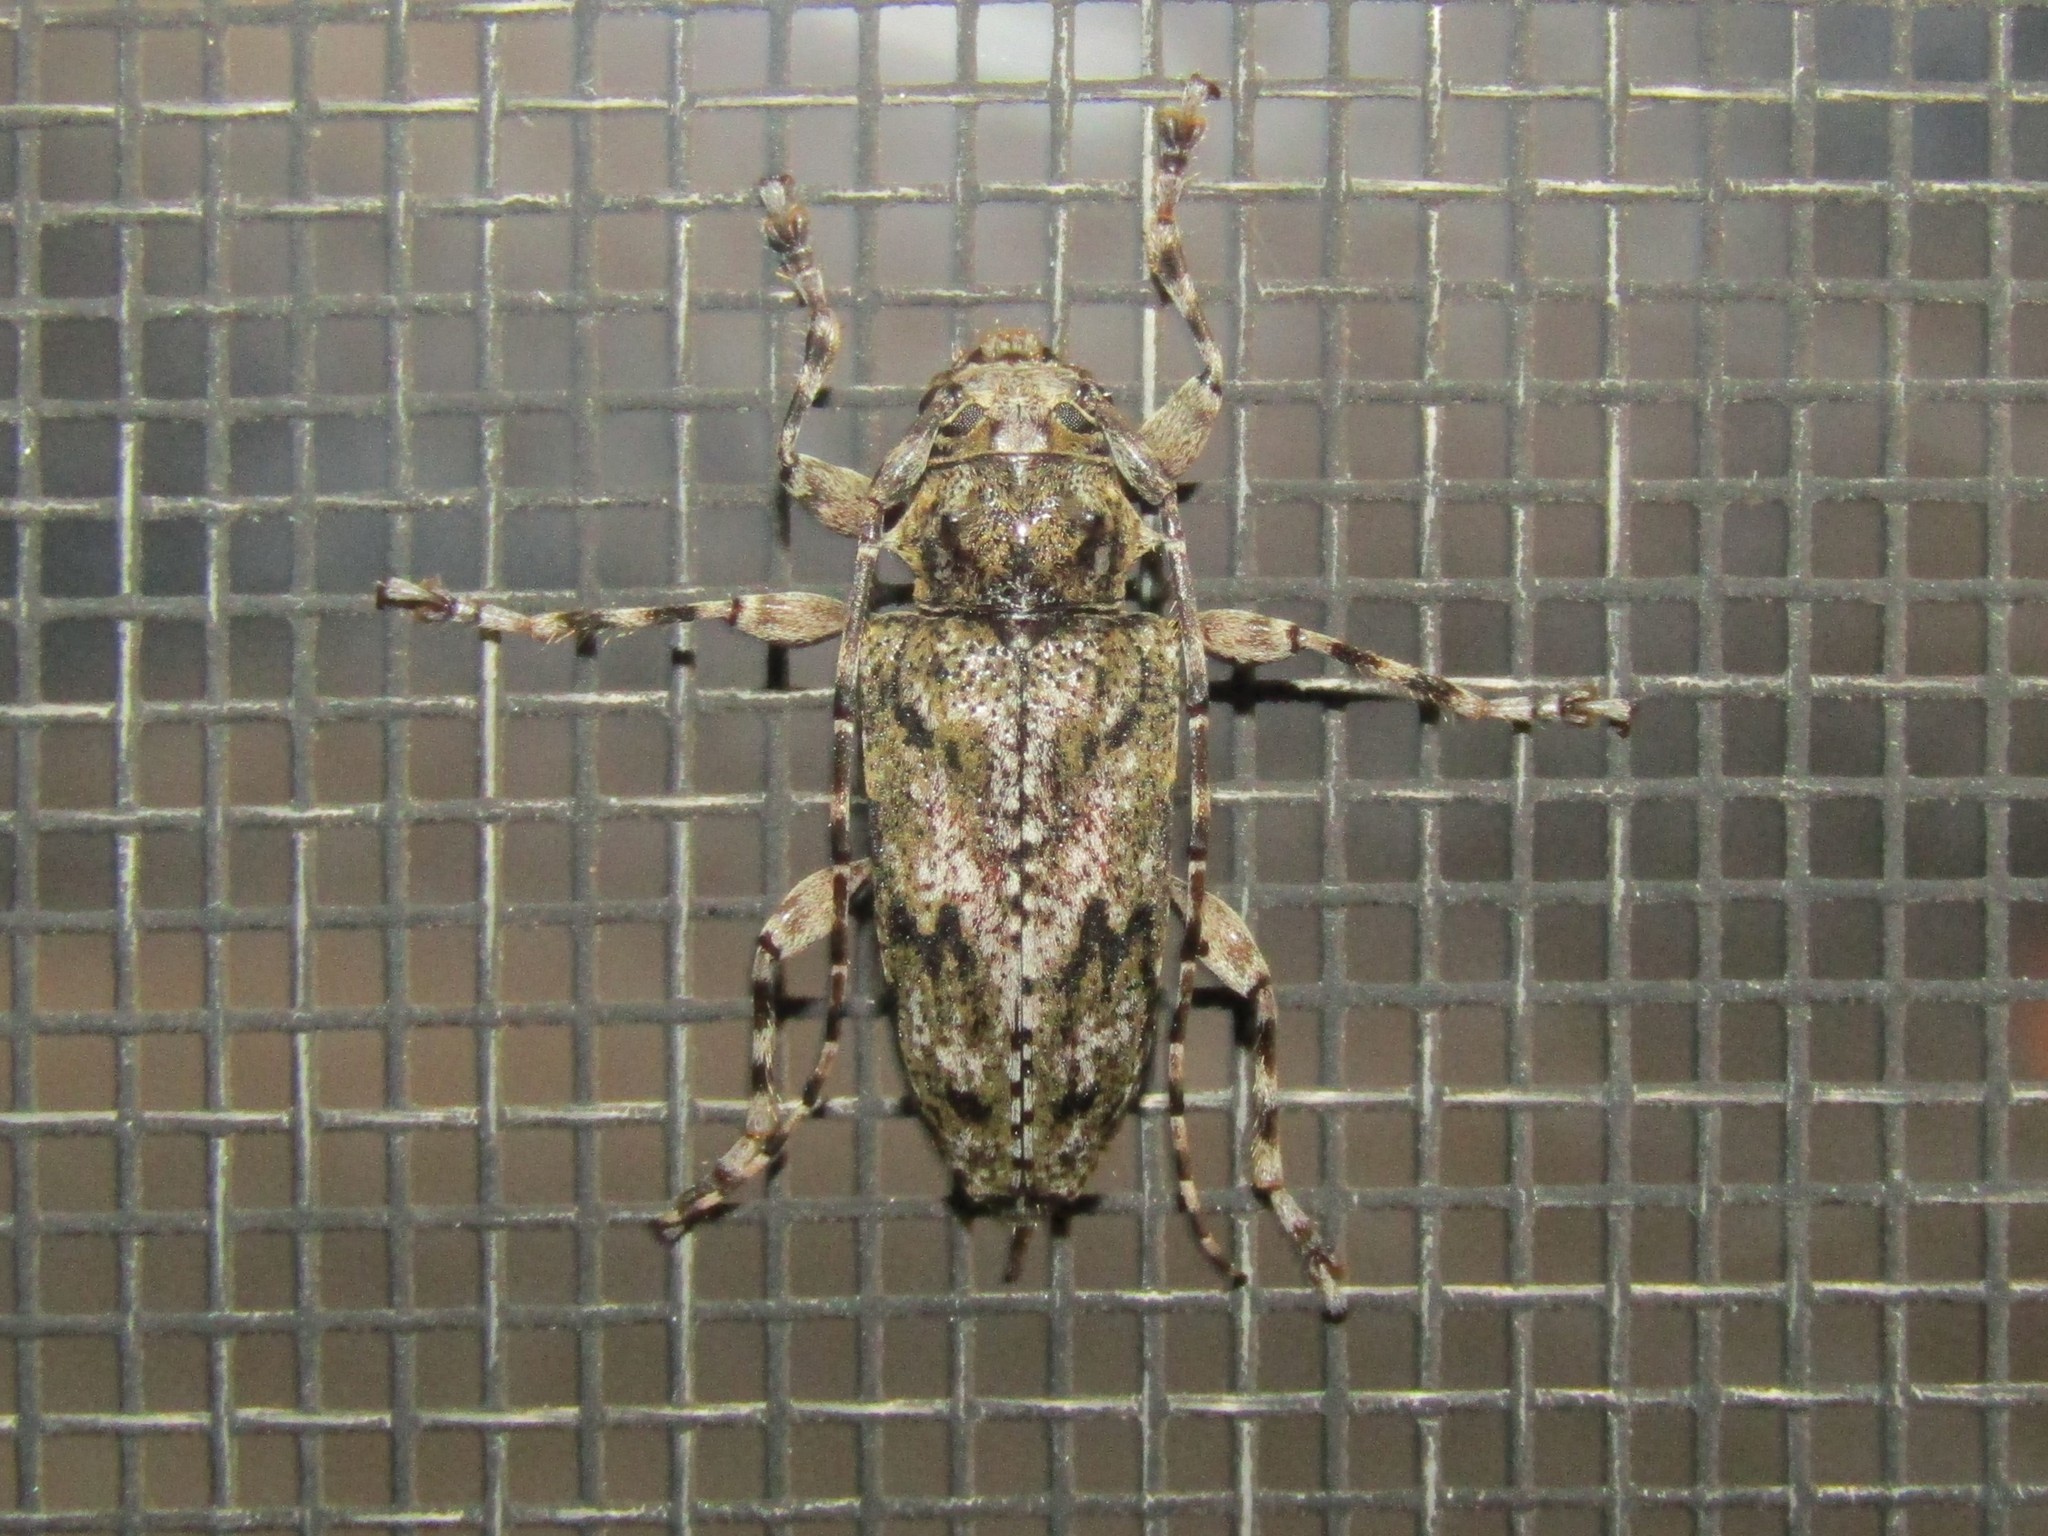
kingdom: Animalia
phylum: Arthropoda
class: Insecta
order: Coleoptera
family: Cerambycidae
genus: Aegomorphus
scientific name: Aegomorphus modestus
